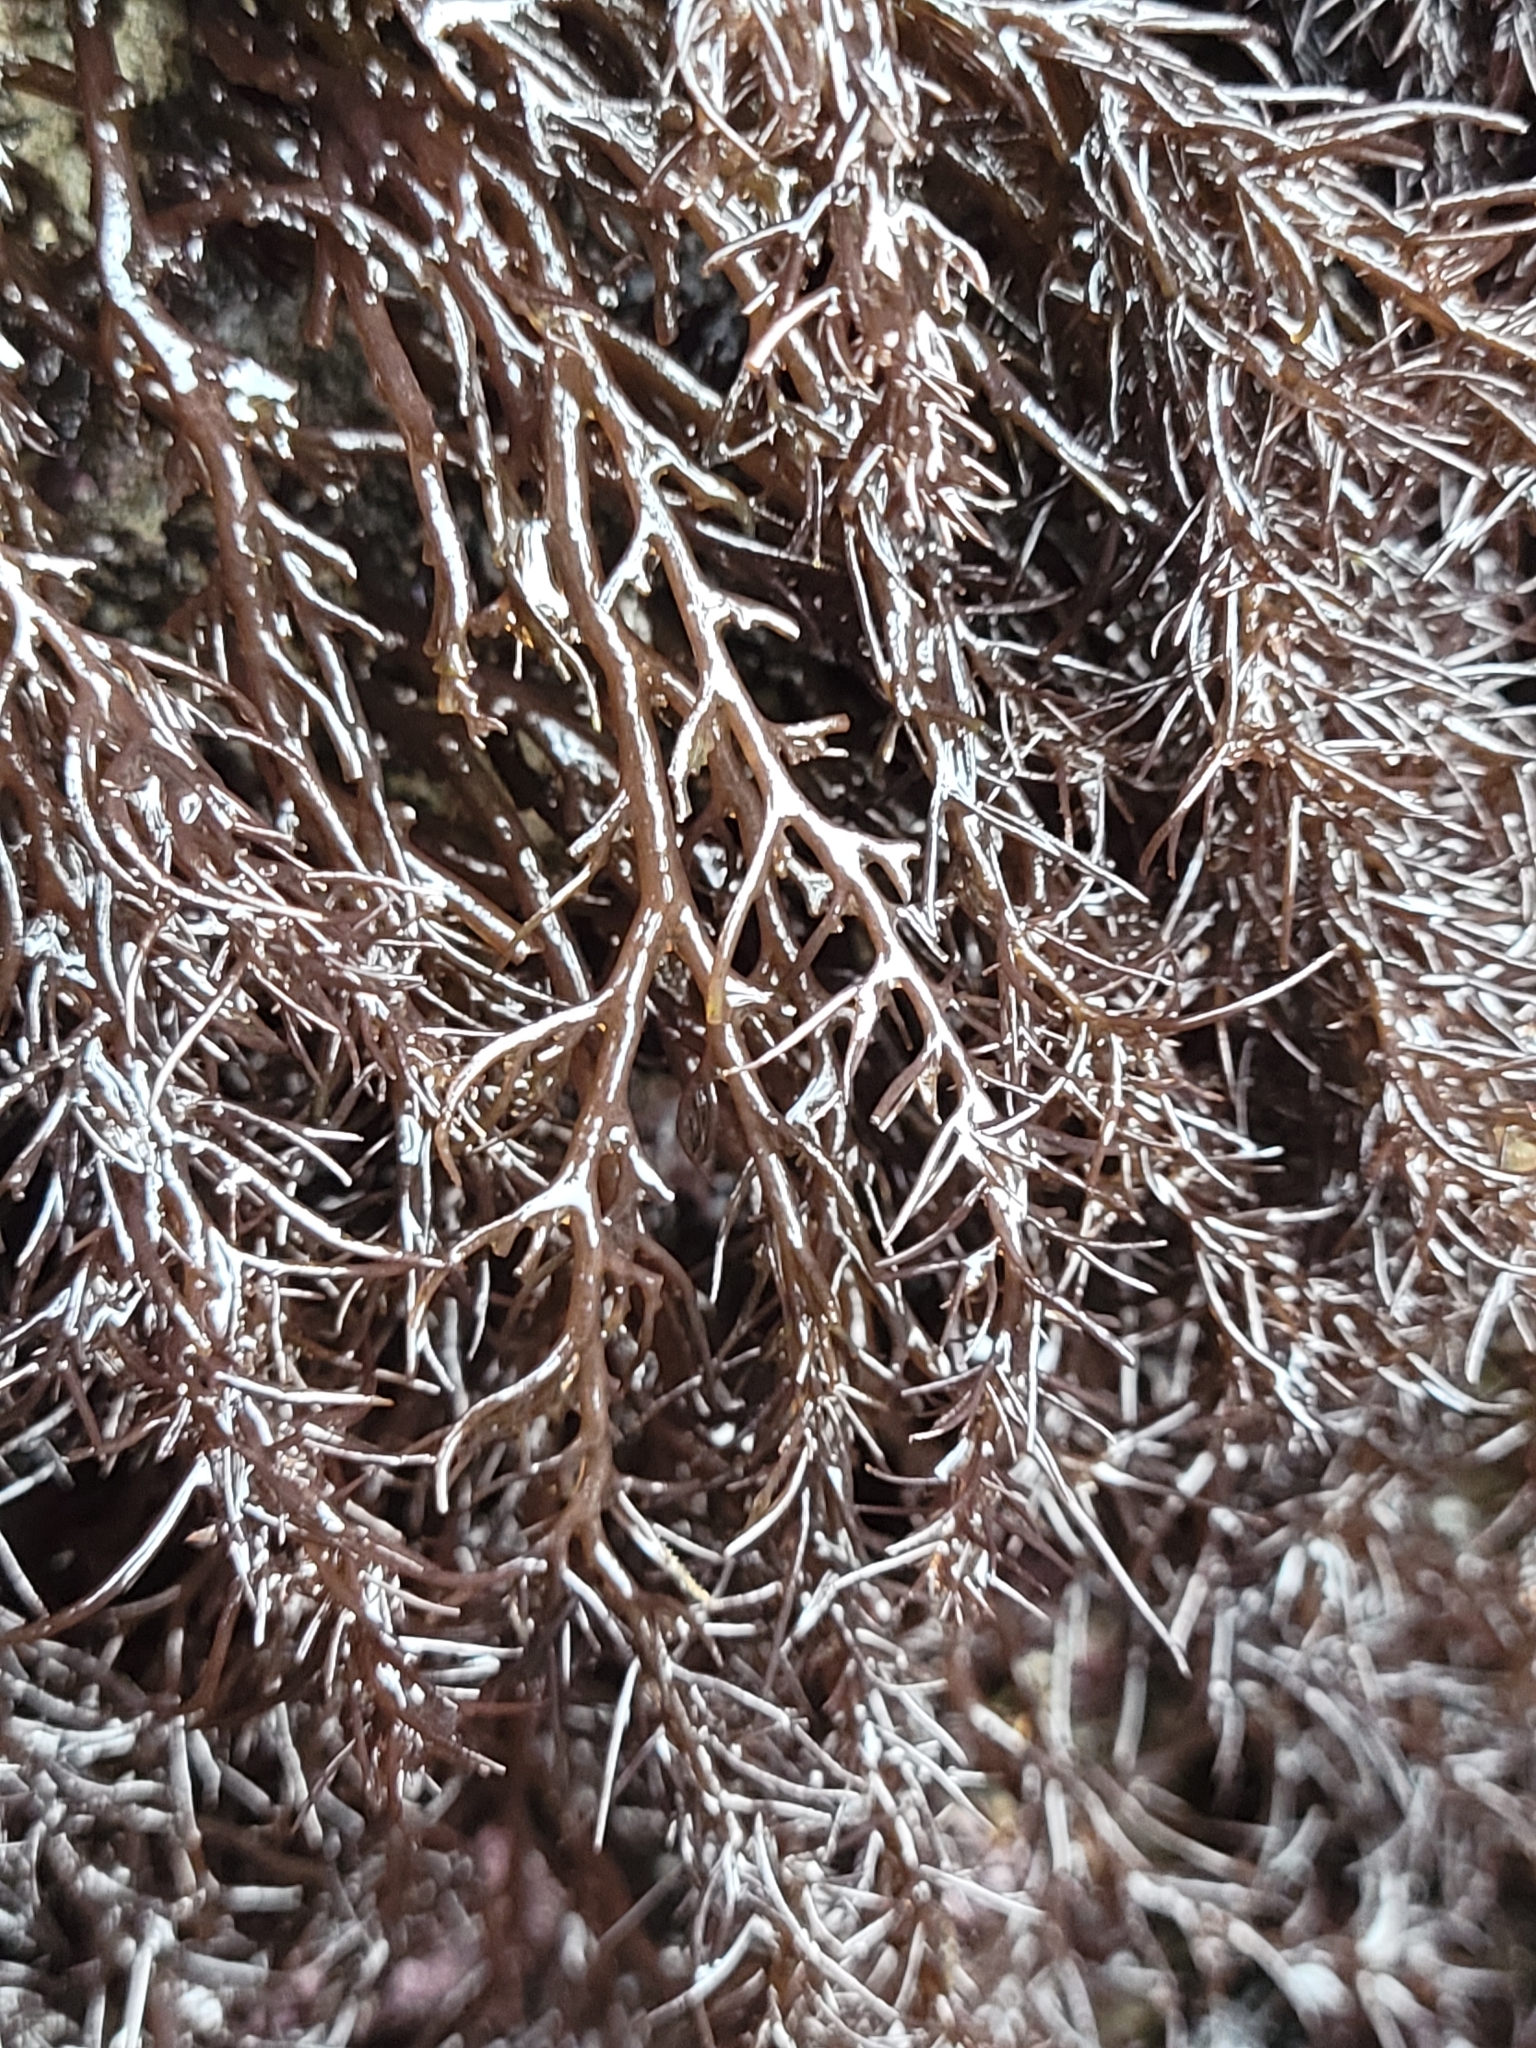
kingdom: Plantae
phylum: Rhodophyta
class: Florideophyceae
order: Ceramiales
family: Rhodomelaceae
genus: Odonthalia
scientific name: Odonthalia floccosa
